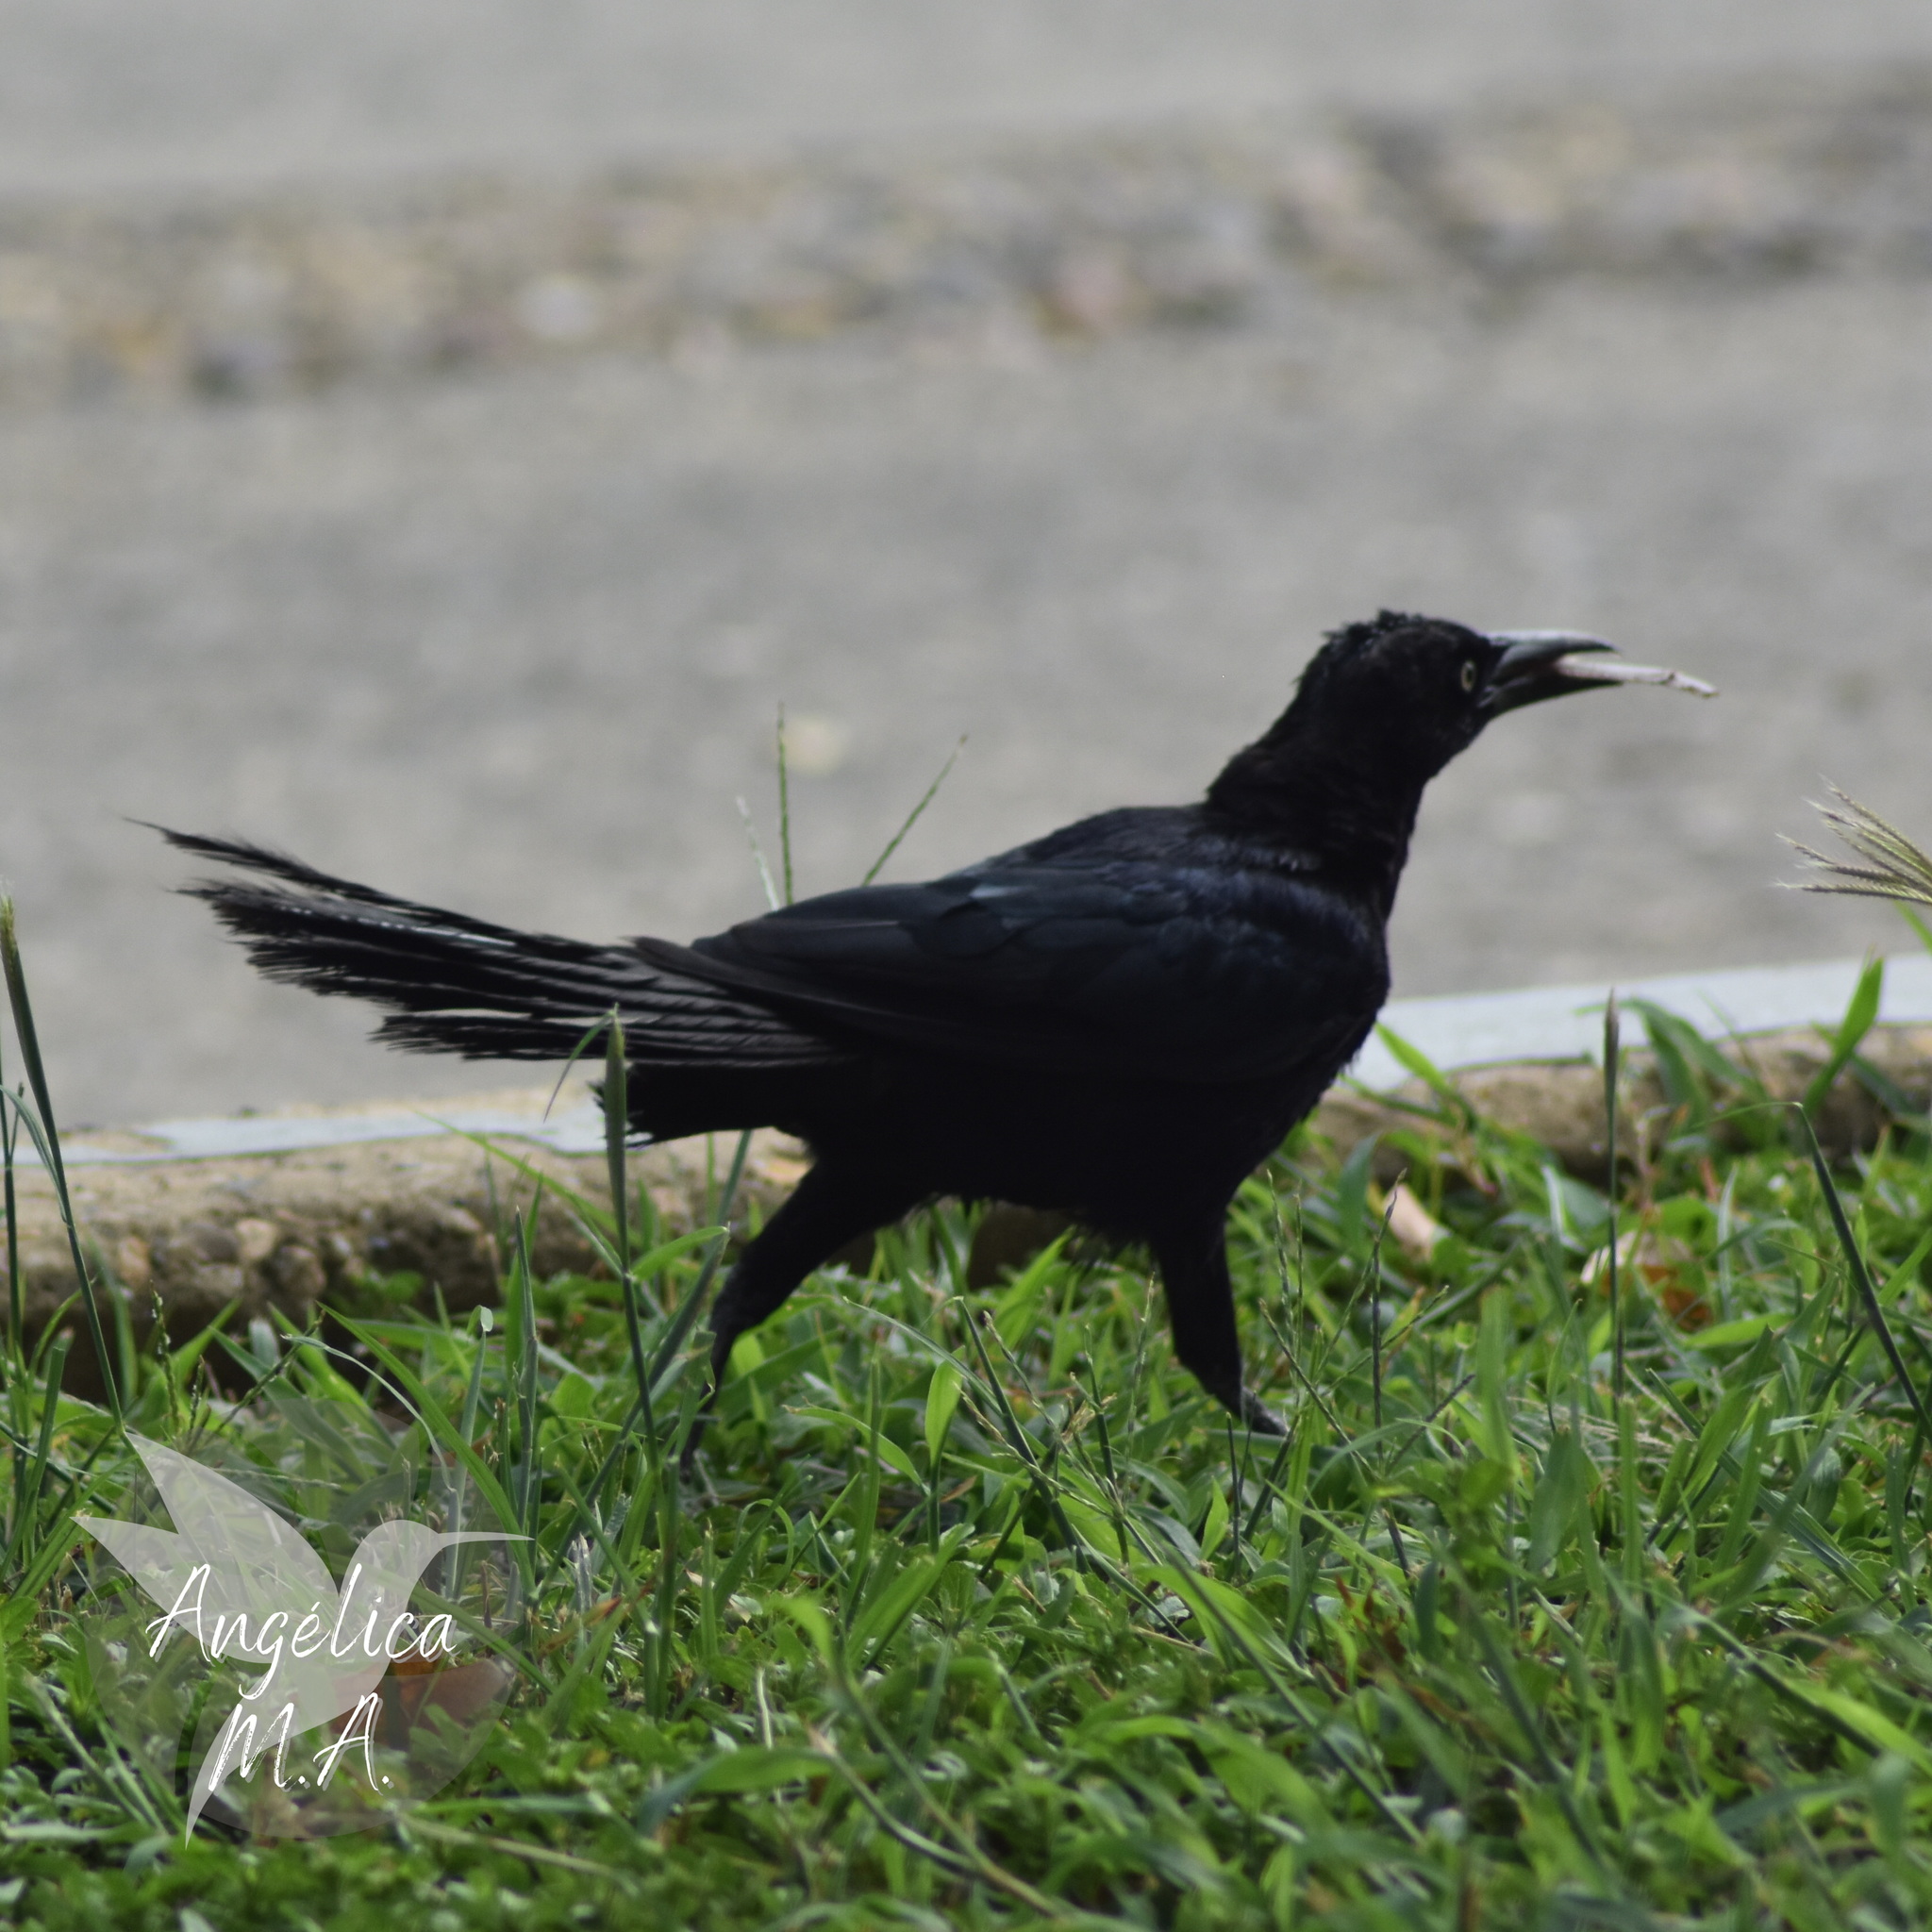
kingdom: Animalia
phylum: Chordata
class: Aves
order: Passeriformes
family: Icteridae
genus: Quiscalus
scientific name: Quiscalus mexicanus
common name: Great-tailed grackle
